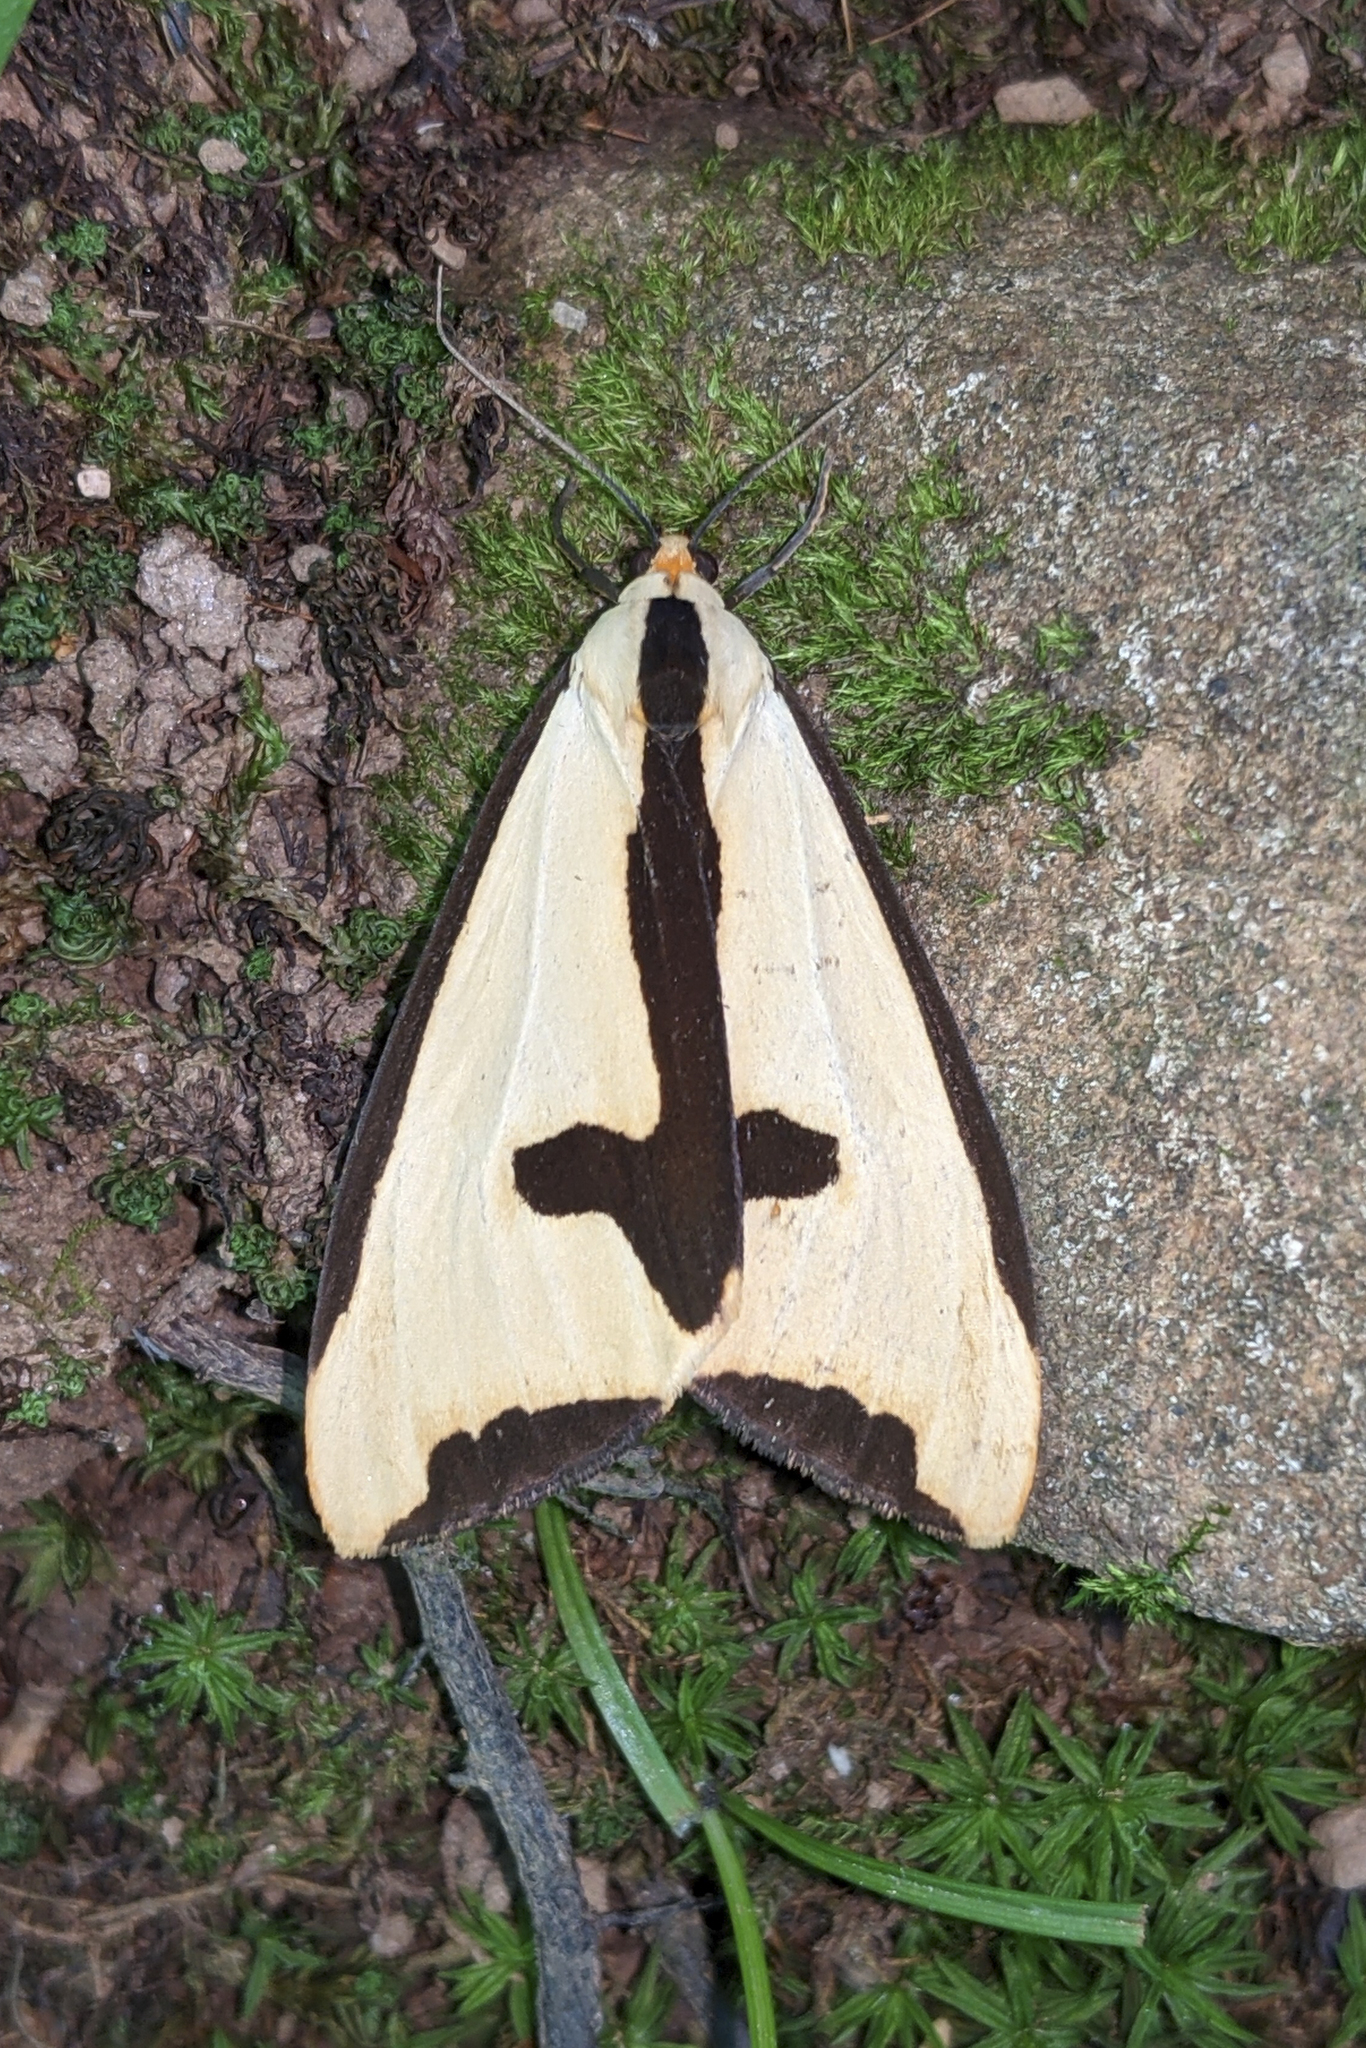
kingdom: Animalia
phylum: Arthropoda
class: Insecta
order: Lepidoptera
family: Erebidae
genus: Haploa
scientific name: Haploa clymene
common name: Clymene moth
